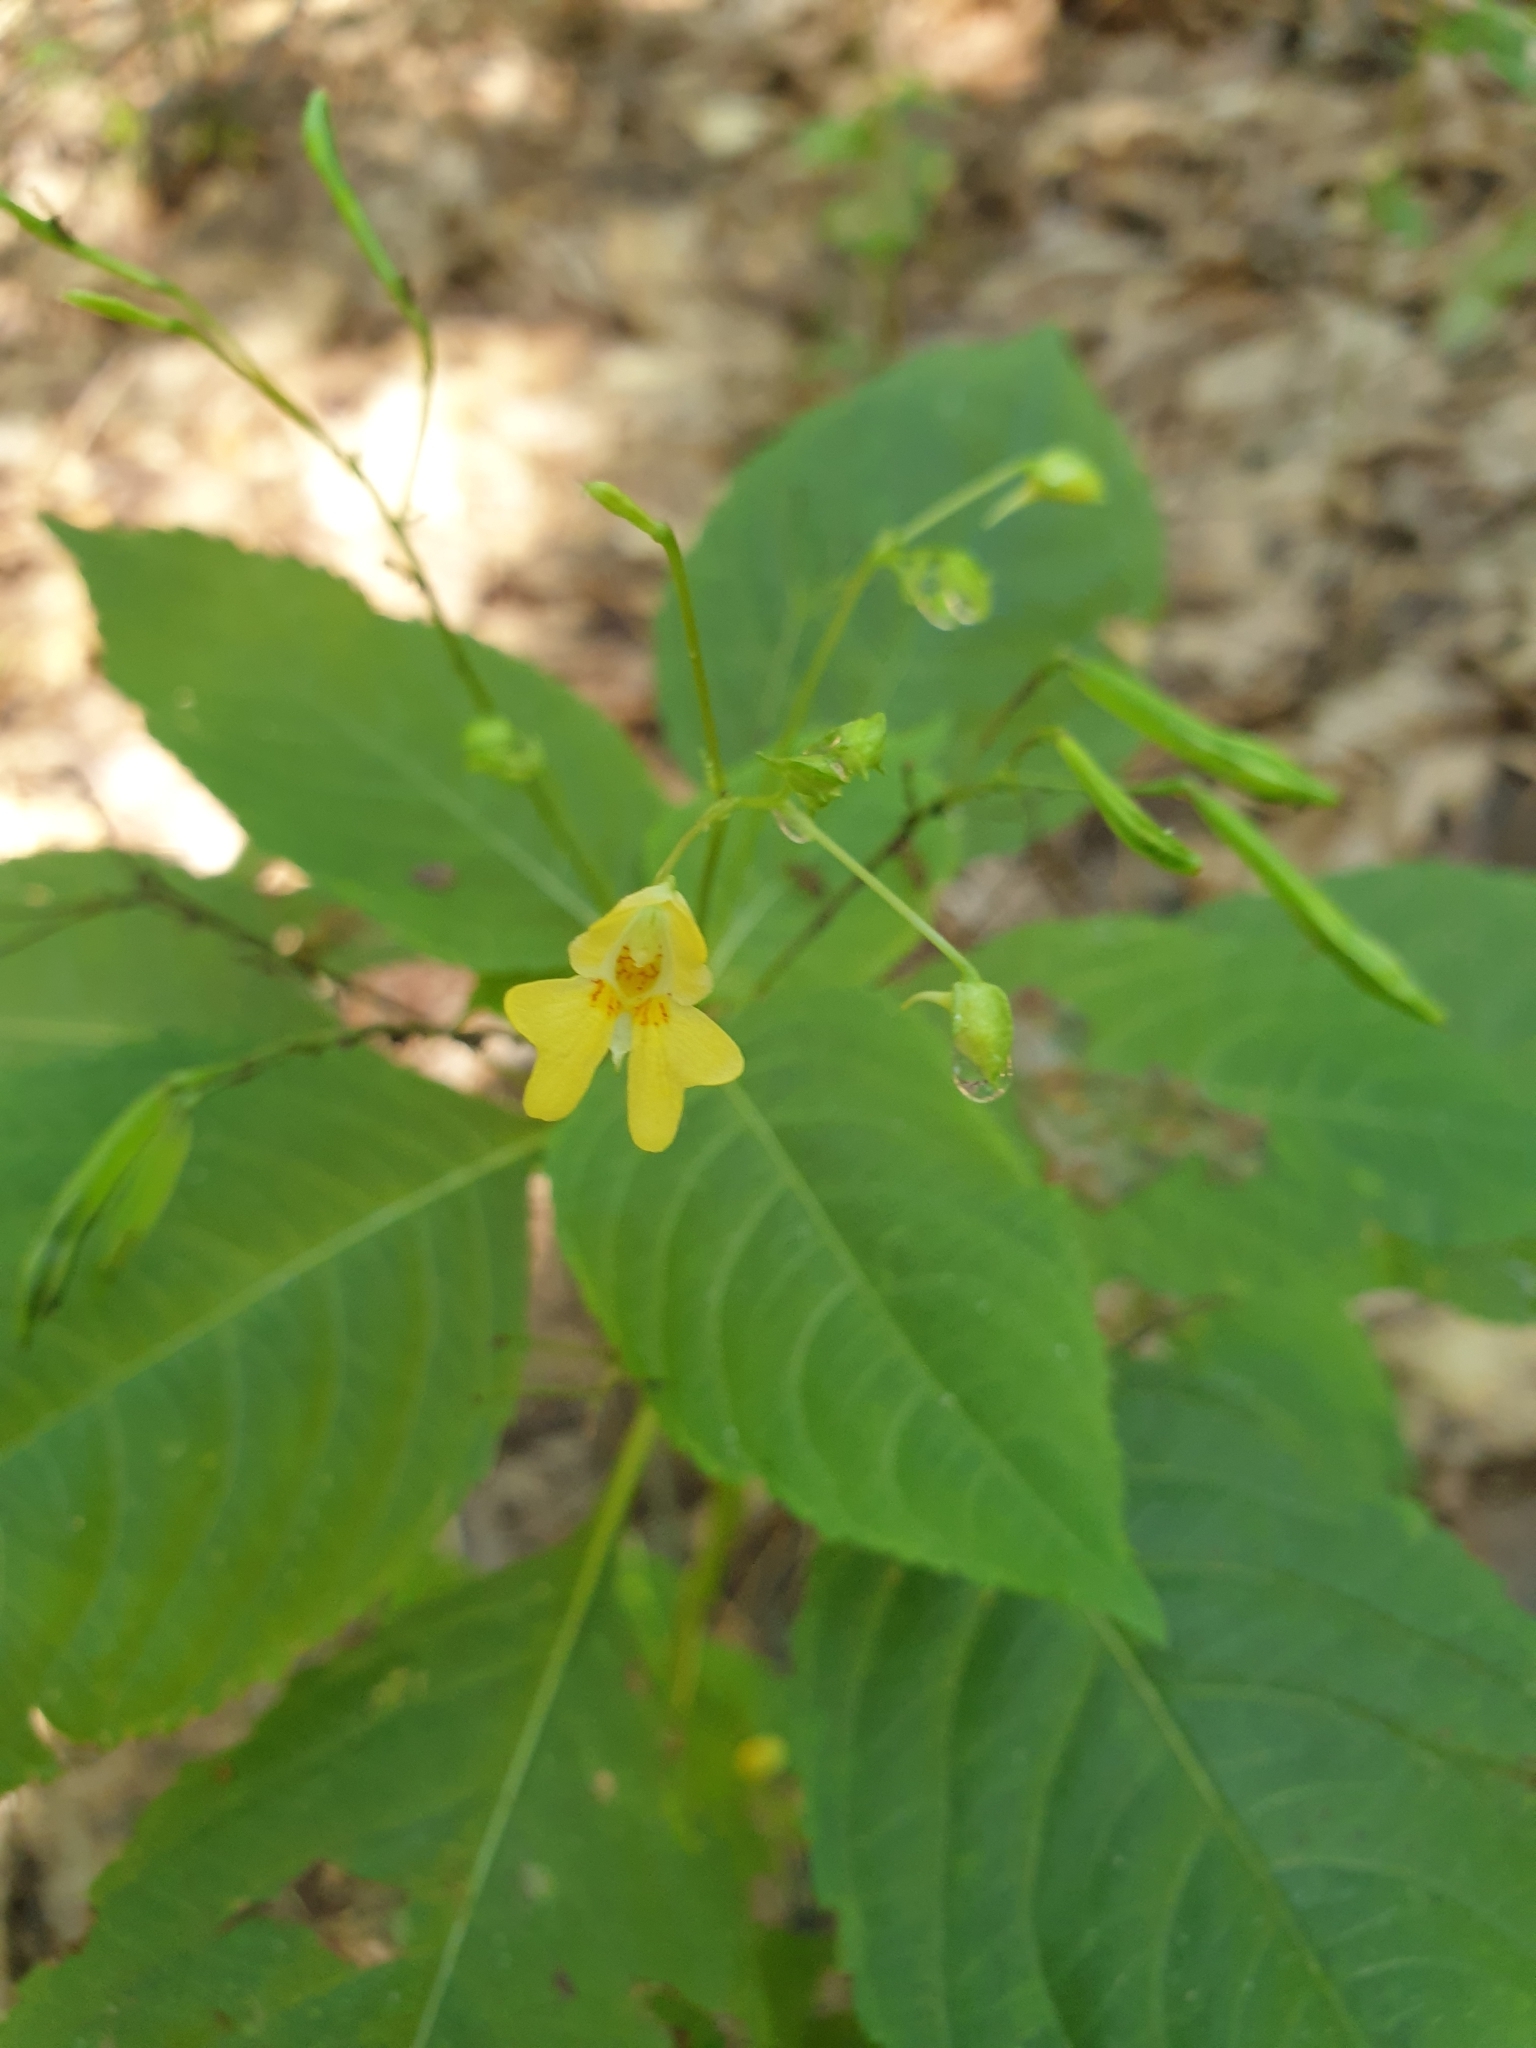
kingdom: Plantae
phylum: Tracheophyta
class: Magnoliopsida
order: Ericales
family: Balsaminaceae
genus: Impatiens
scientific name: Impatiens parviflora
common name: Small balsam
